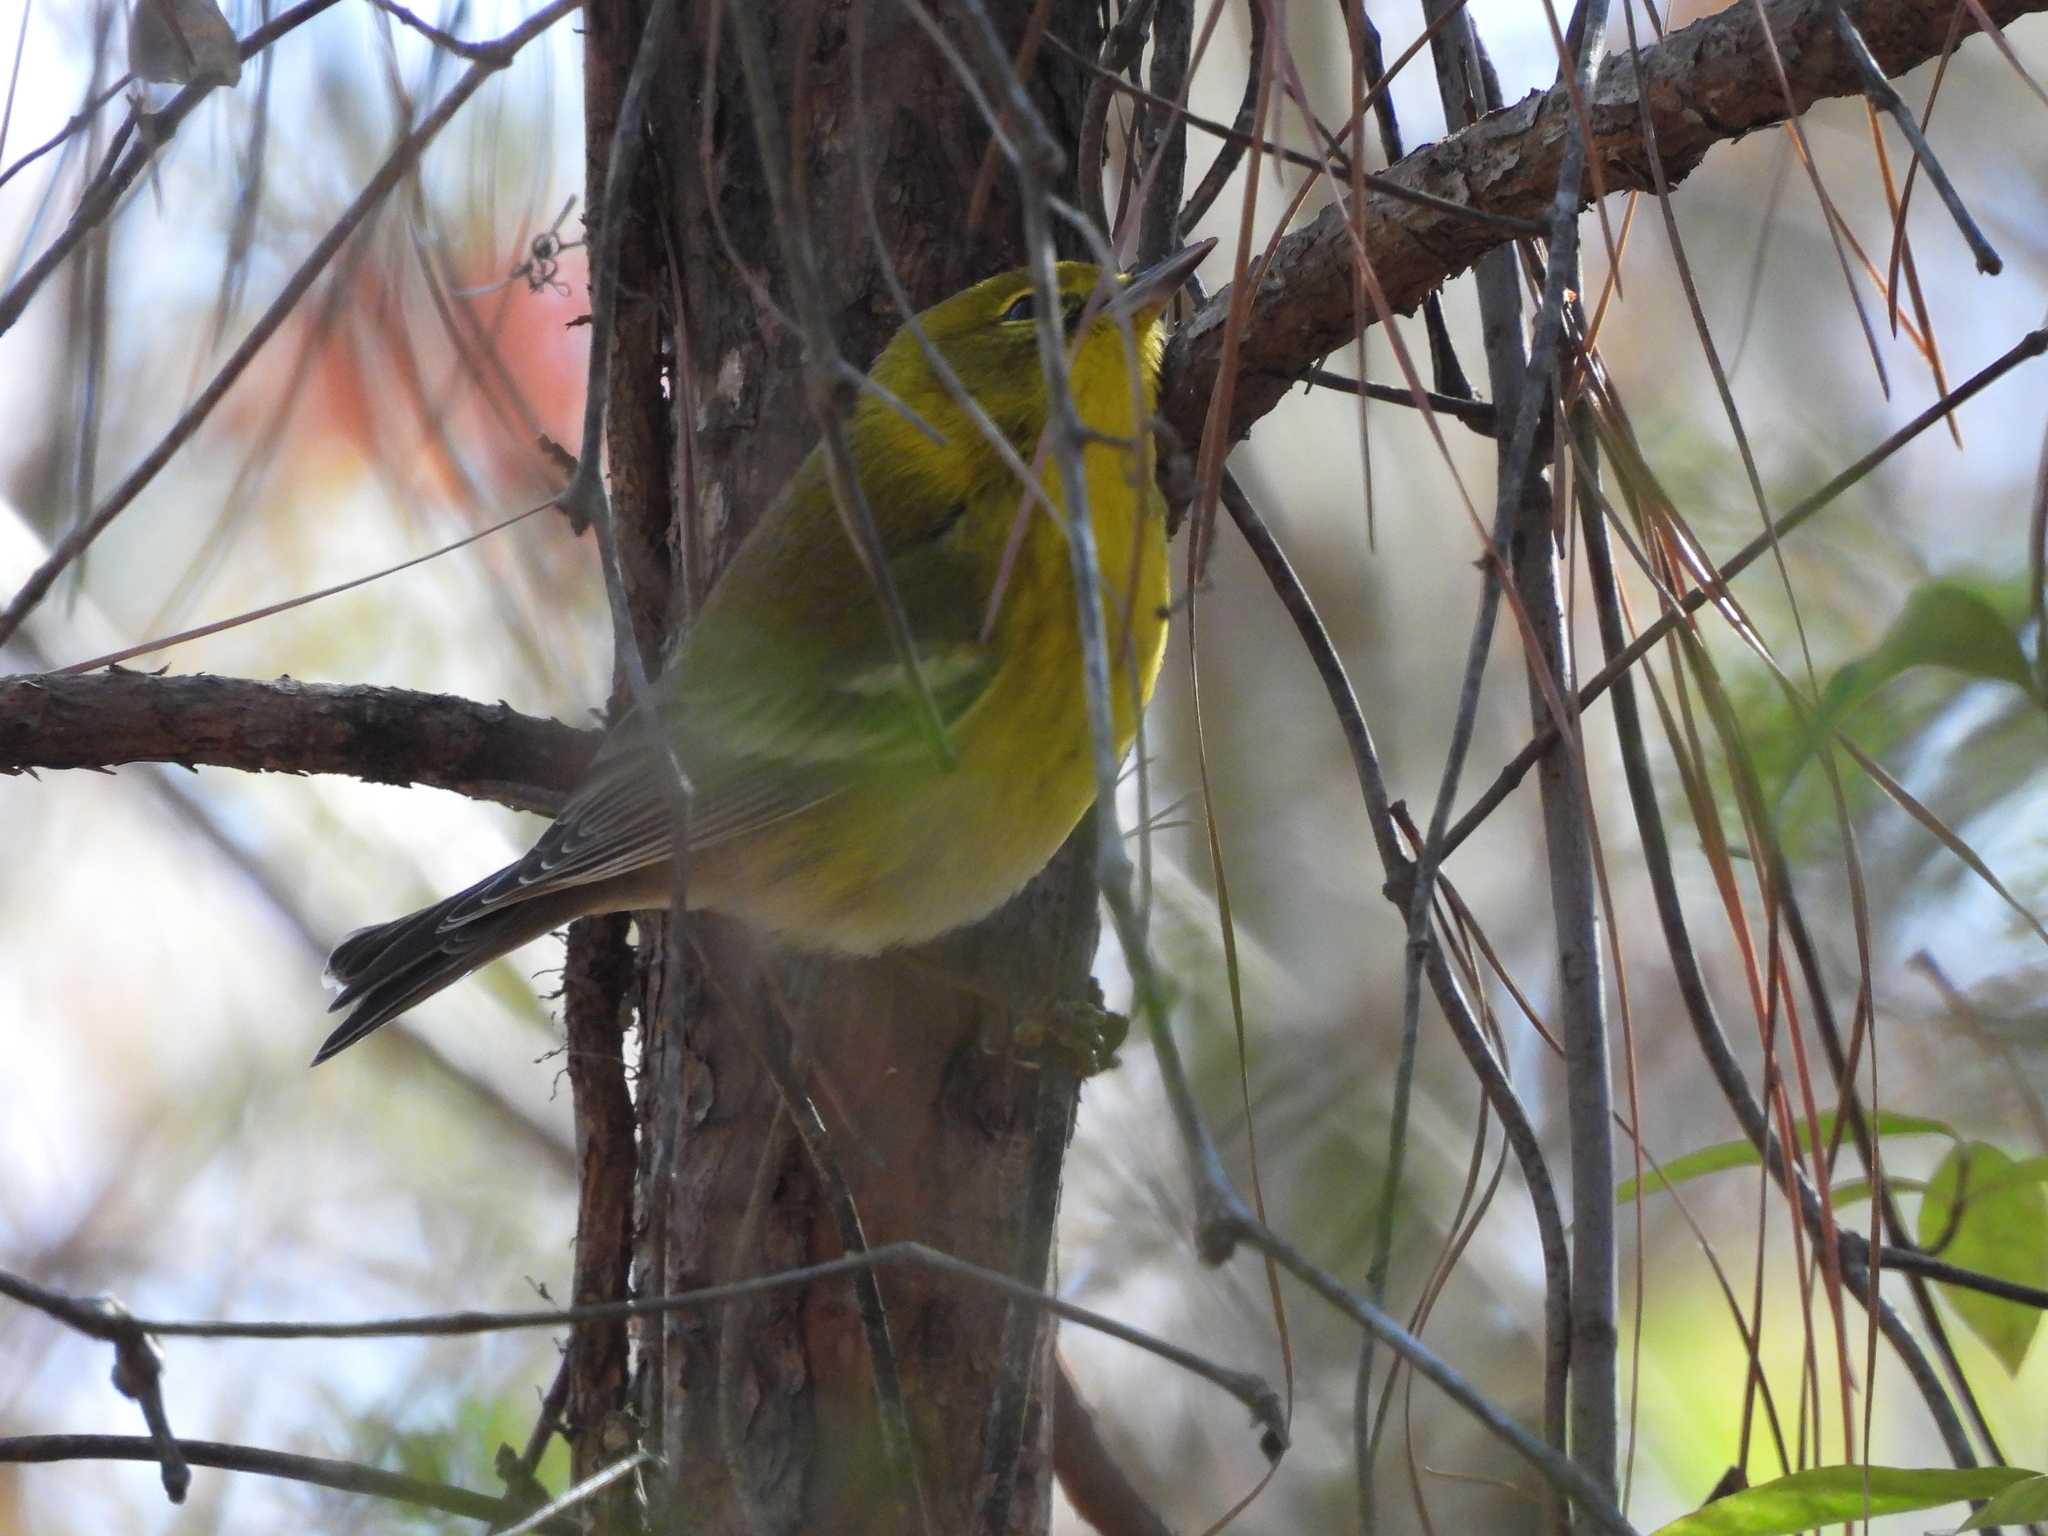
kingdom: Animalia
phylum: Chordata
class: Aves
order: Passeriformes
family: Parulidae
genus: Setophaga
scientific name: Setophaga pinus
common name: Pine warbler
